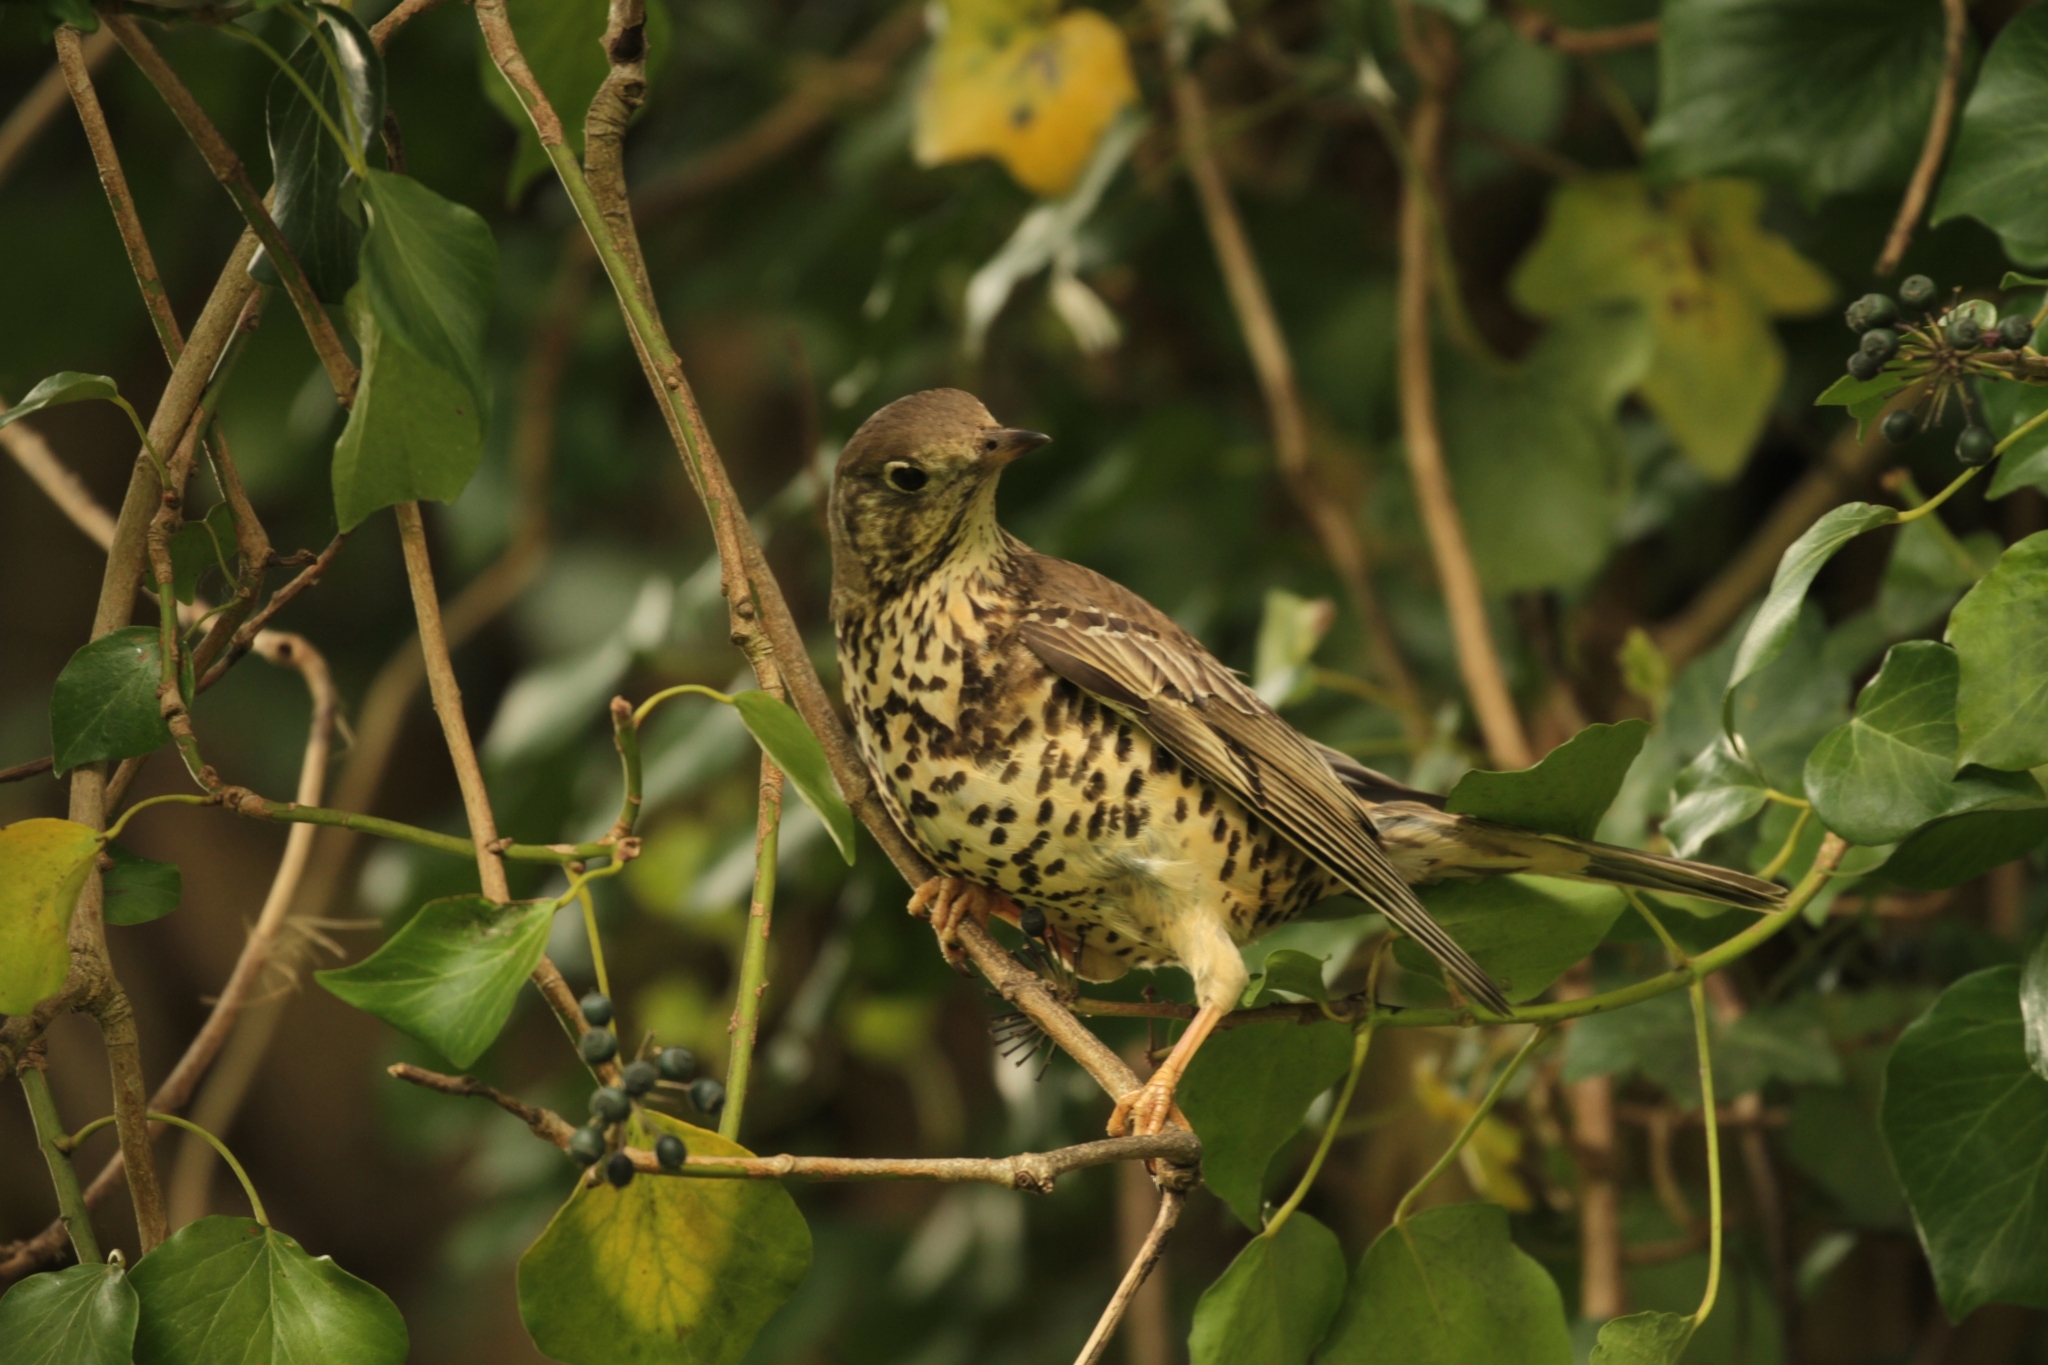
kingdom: Animalia
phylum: Chordata
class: Aves
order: Passeriformes
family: Turdidae
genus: Turdus
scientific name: Turdus viscivorus
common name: Mistle thrush
